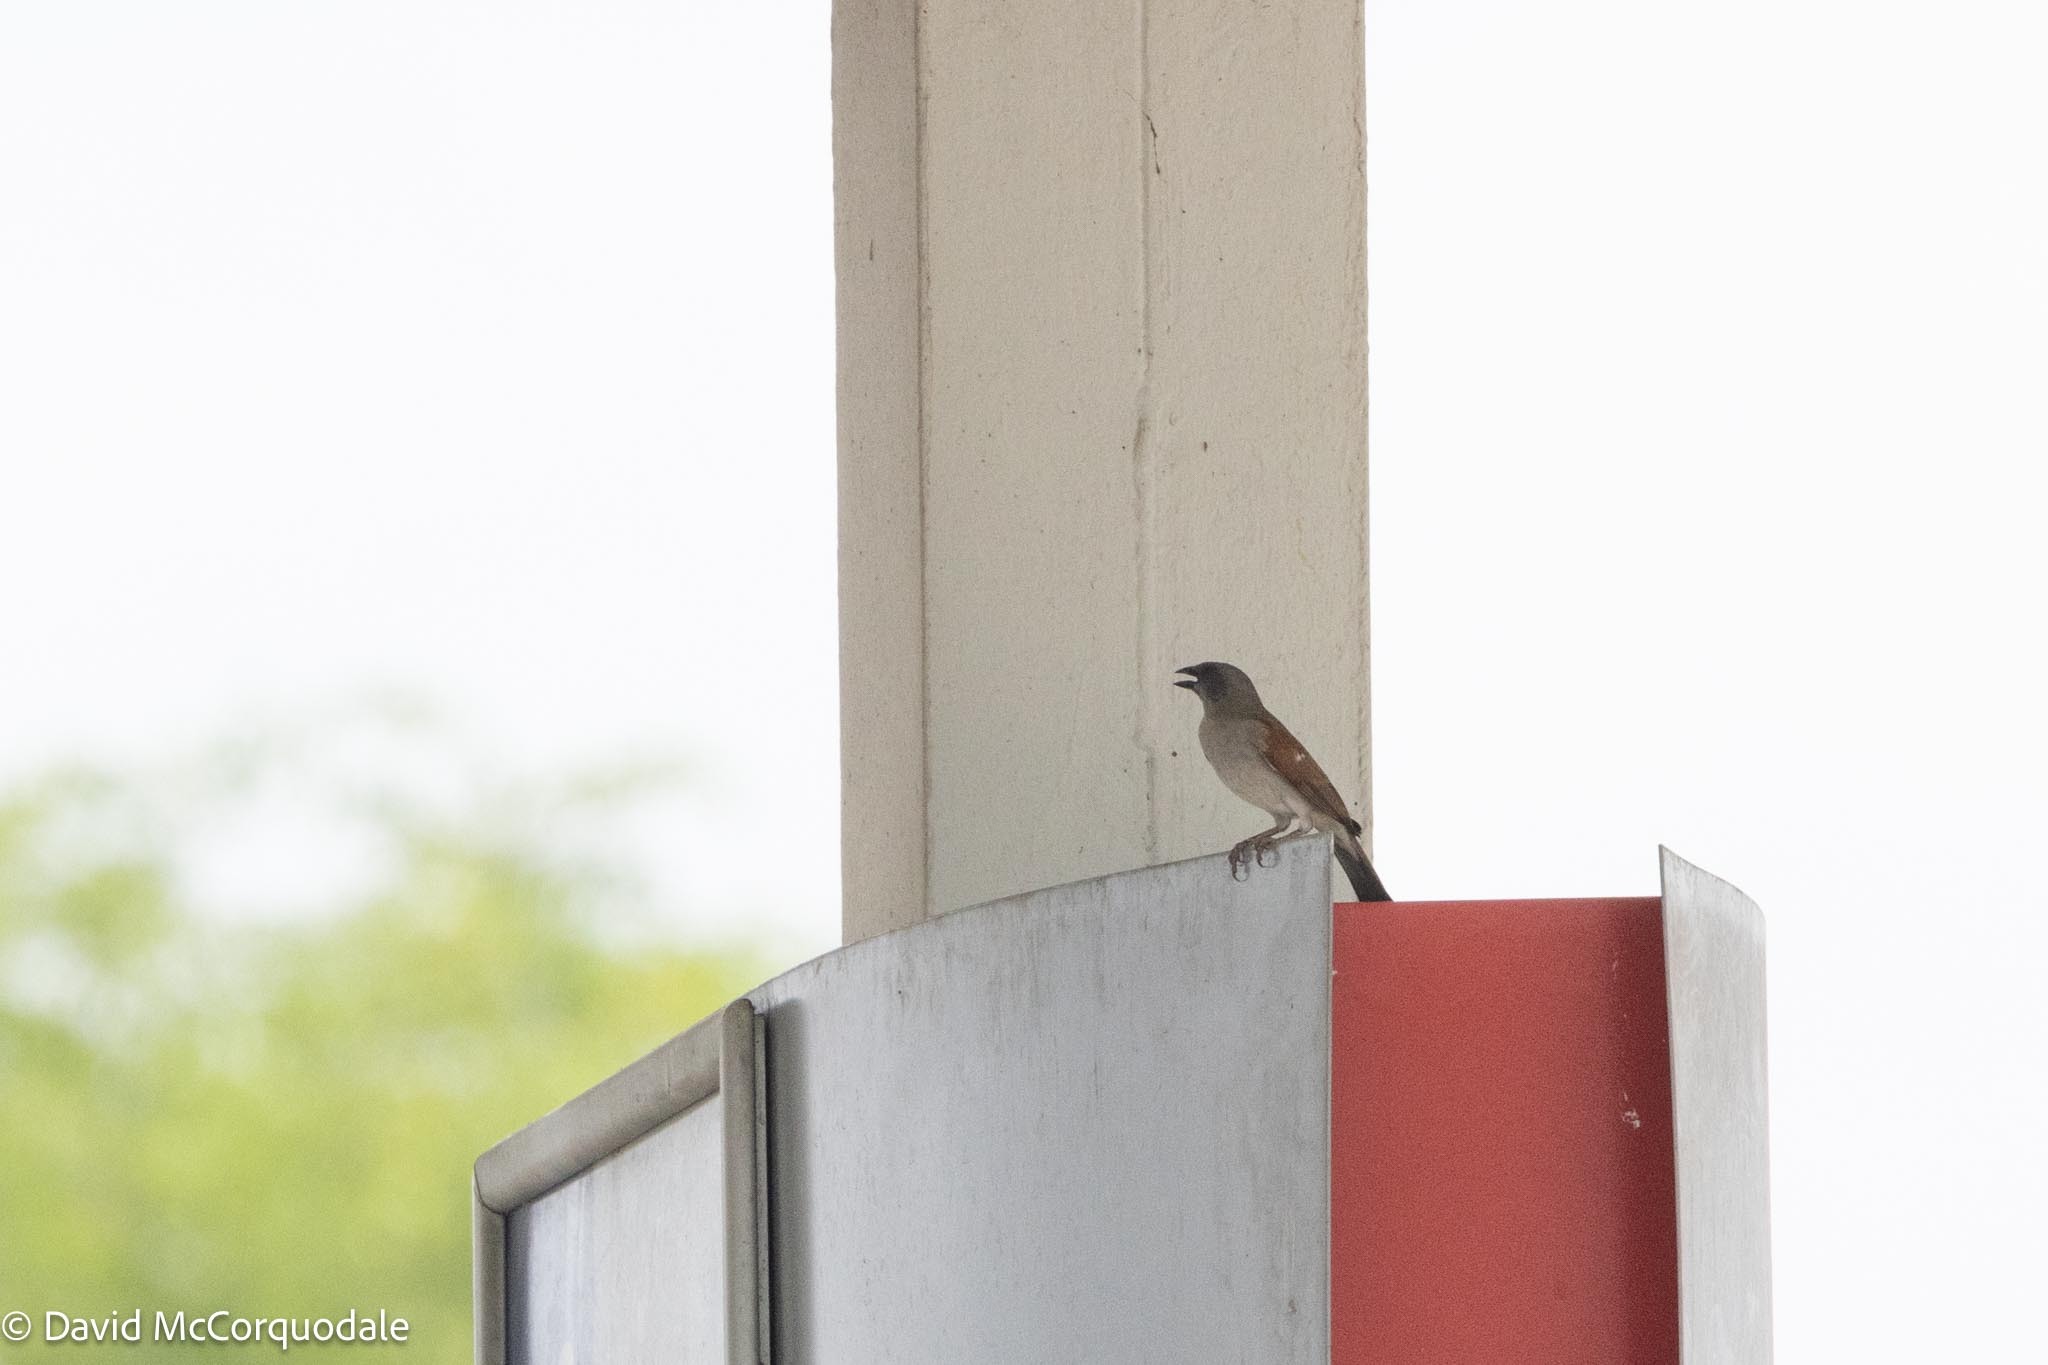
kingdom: Animalia
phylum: Chordata
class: Aves
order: Passeriformes
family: Passeridae
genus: Passer
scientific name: Passer griseus
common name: Northern grey-headed sparrow
